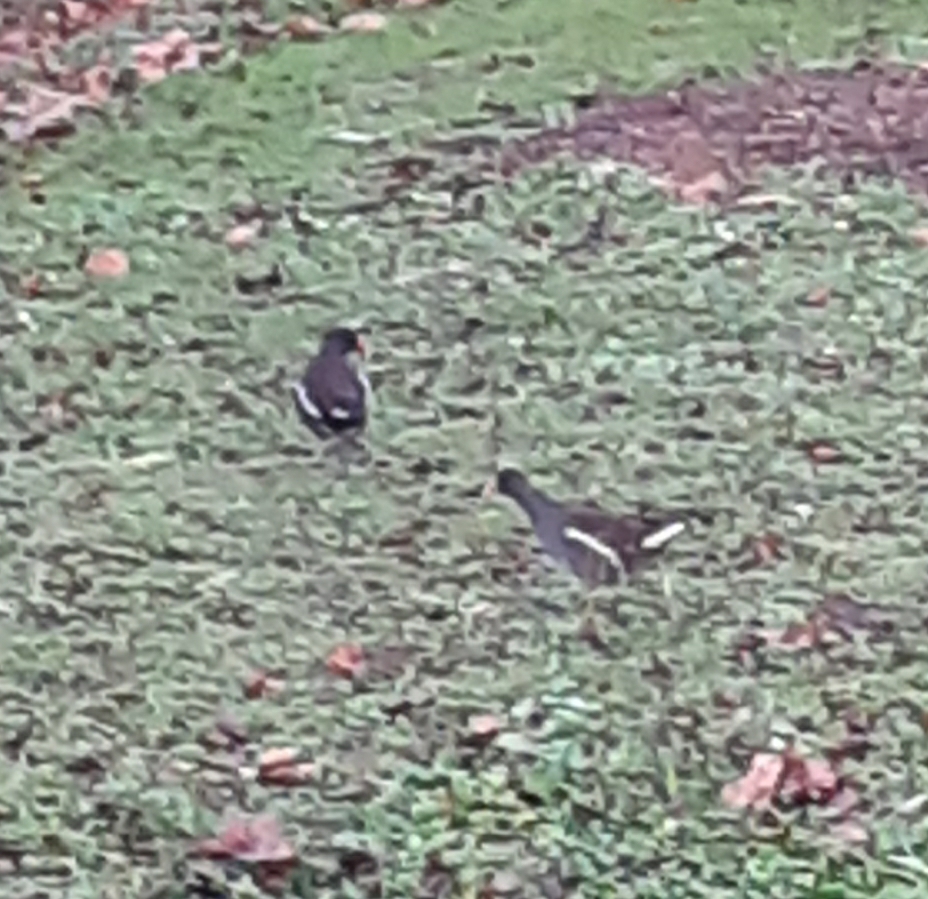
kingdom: Animalia
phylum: Chordata
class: Aves
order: Gruiformes
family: Rallidae
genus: Gallinula
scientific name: Gallinula chloropus
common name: Common moorhen
